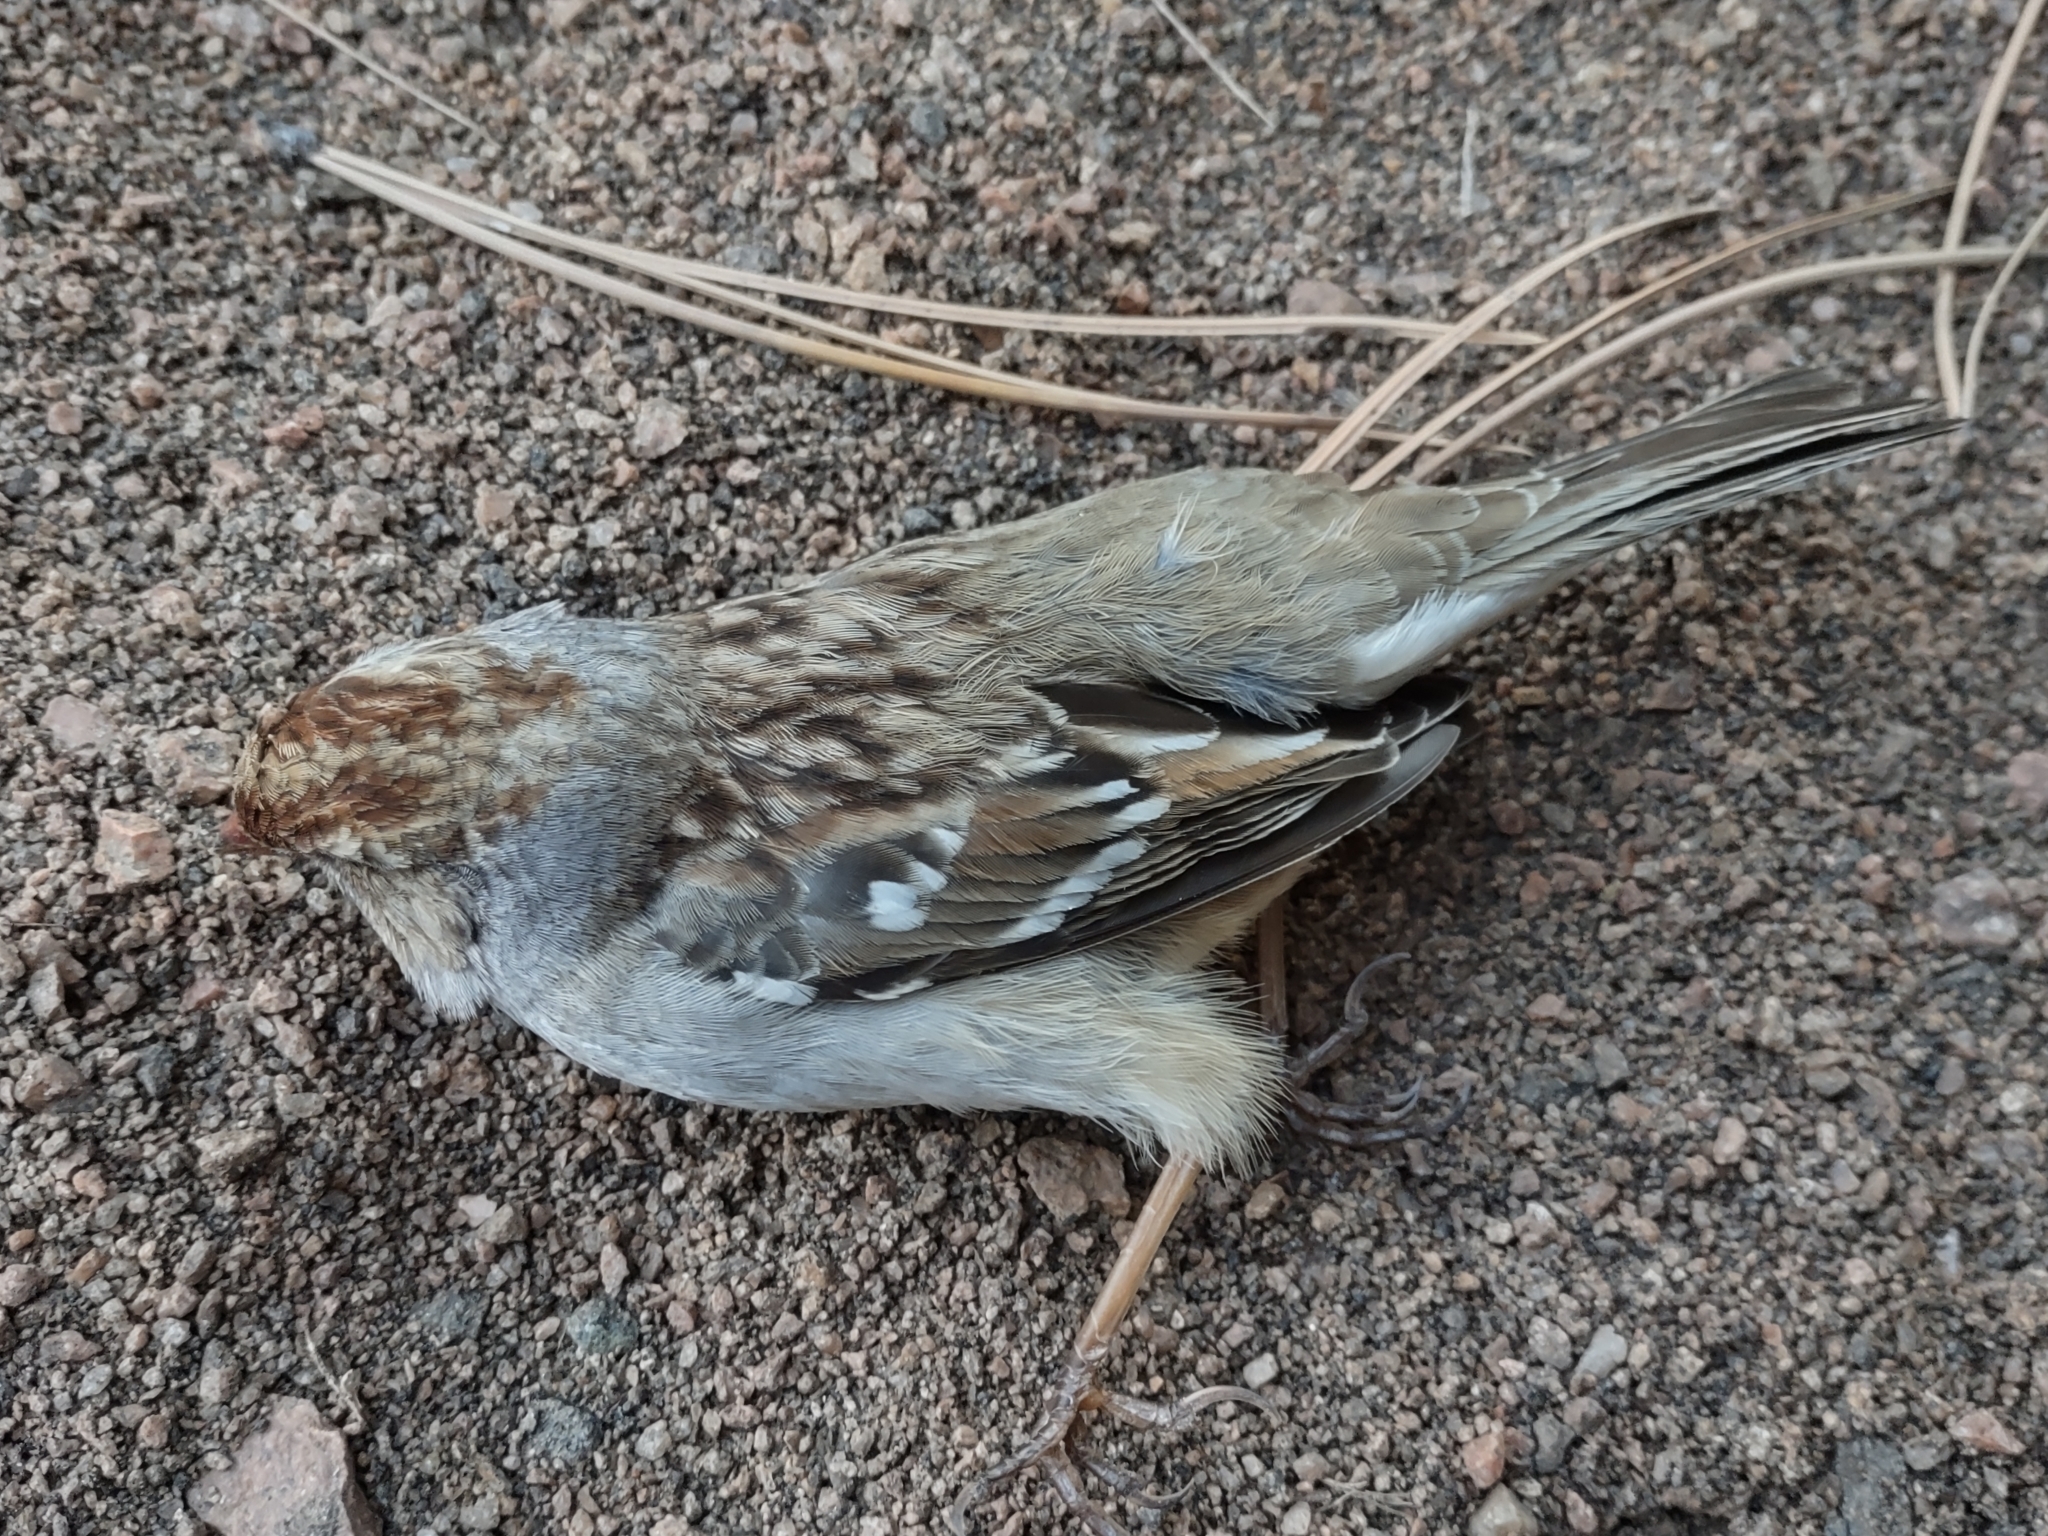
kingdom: Animalia
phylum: Chordata
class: Aves
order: Passeriformes
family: Passerellidae
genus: Zonotrichia
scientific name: Zonotrichia leucophrys
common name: White-crowned sparrow
